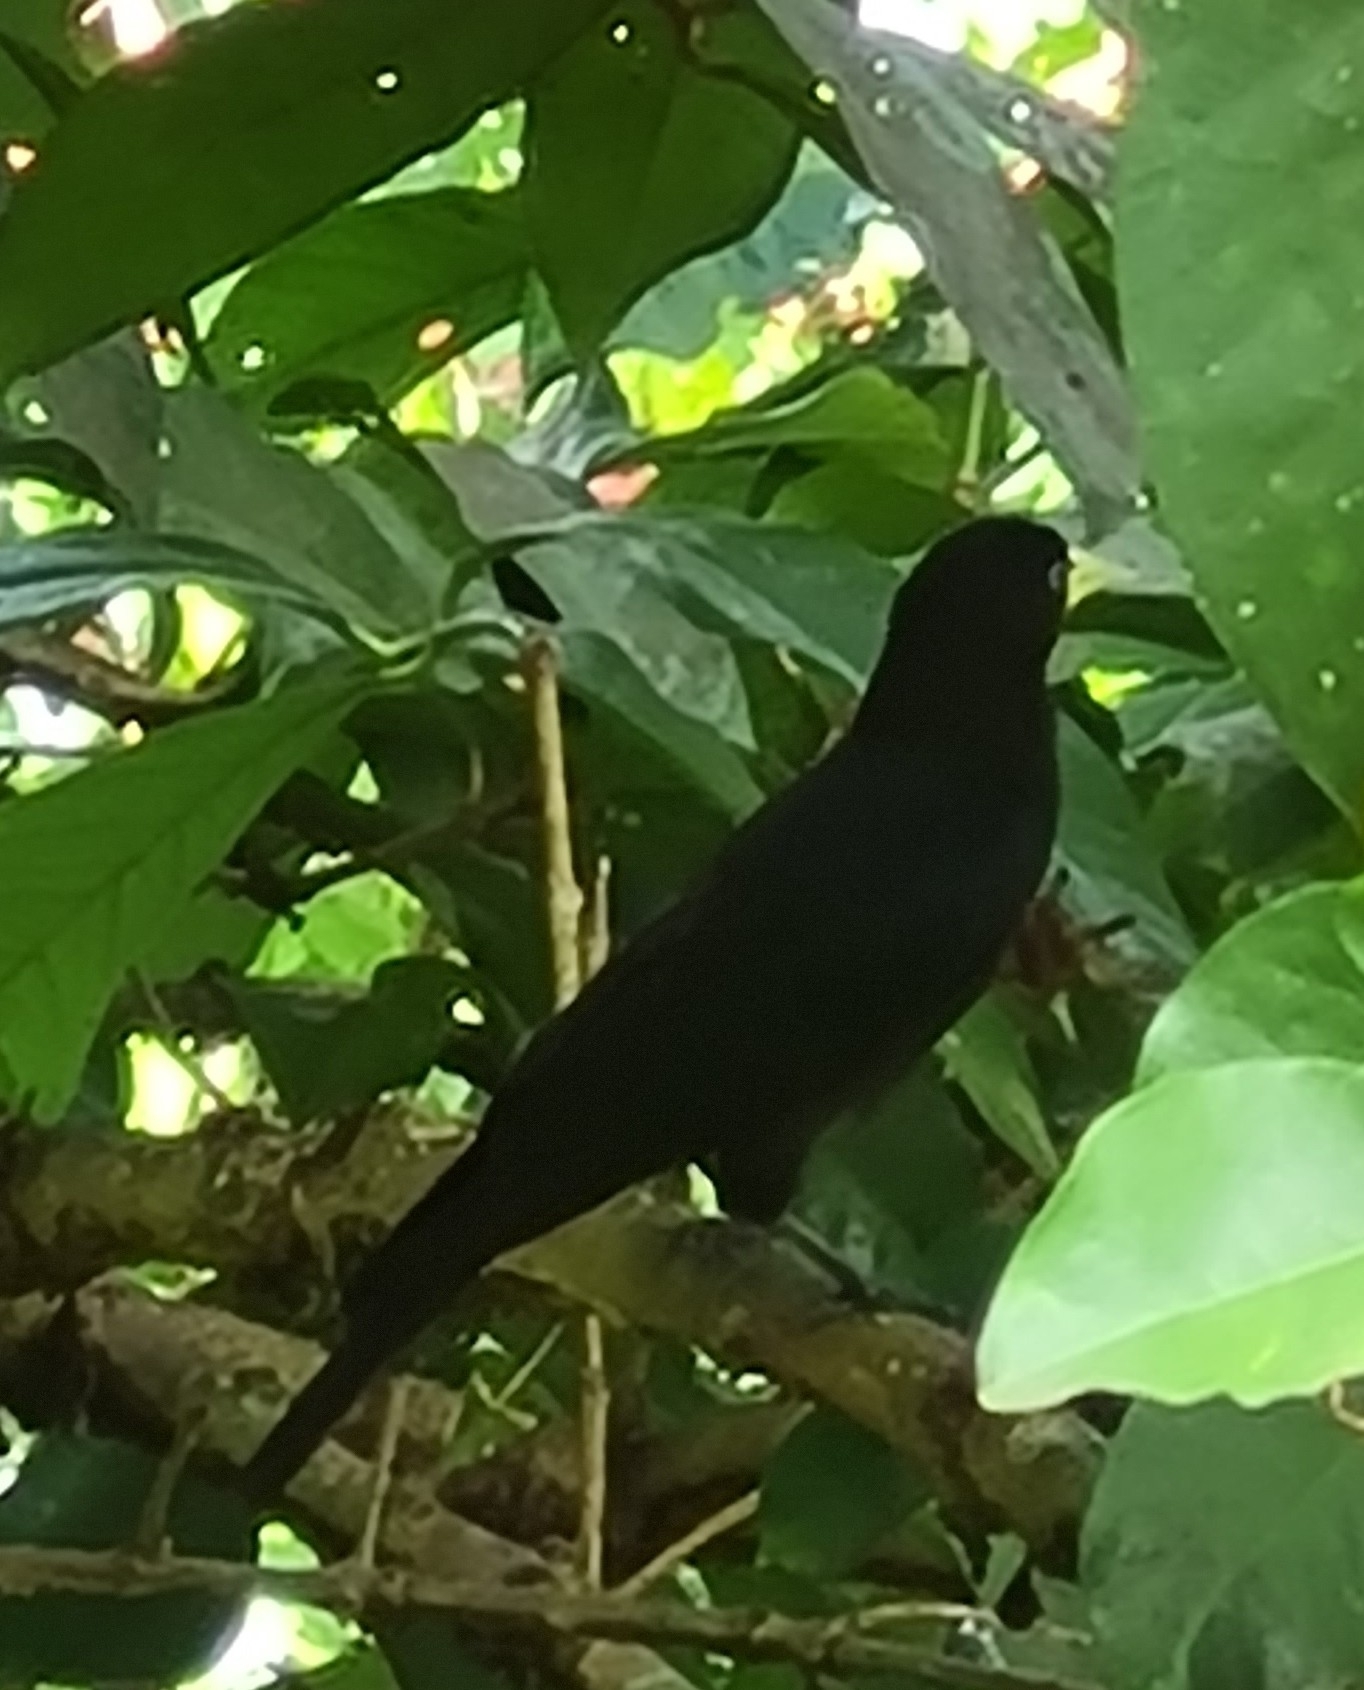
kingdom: Animalia
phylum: Chordata
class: Aves
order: Passeriformes
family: Icteridae
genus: Cacicus
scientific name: Cacicus haemorrhous
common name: Red-rumped cacique
